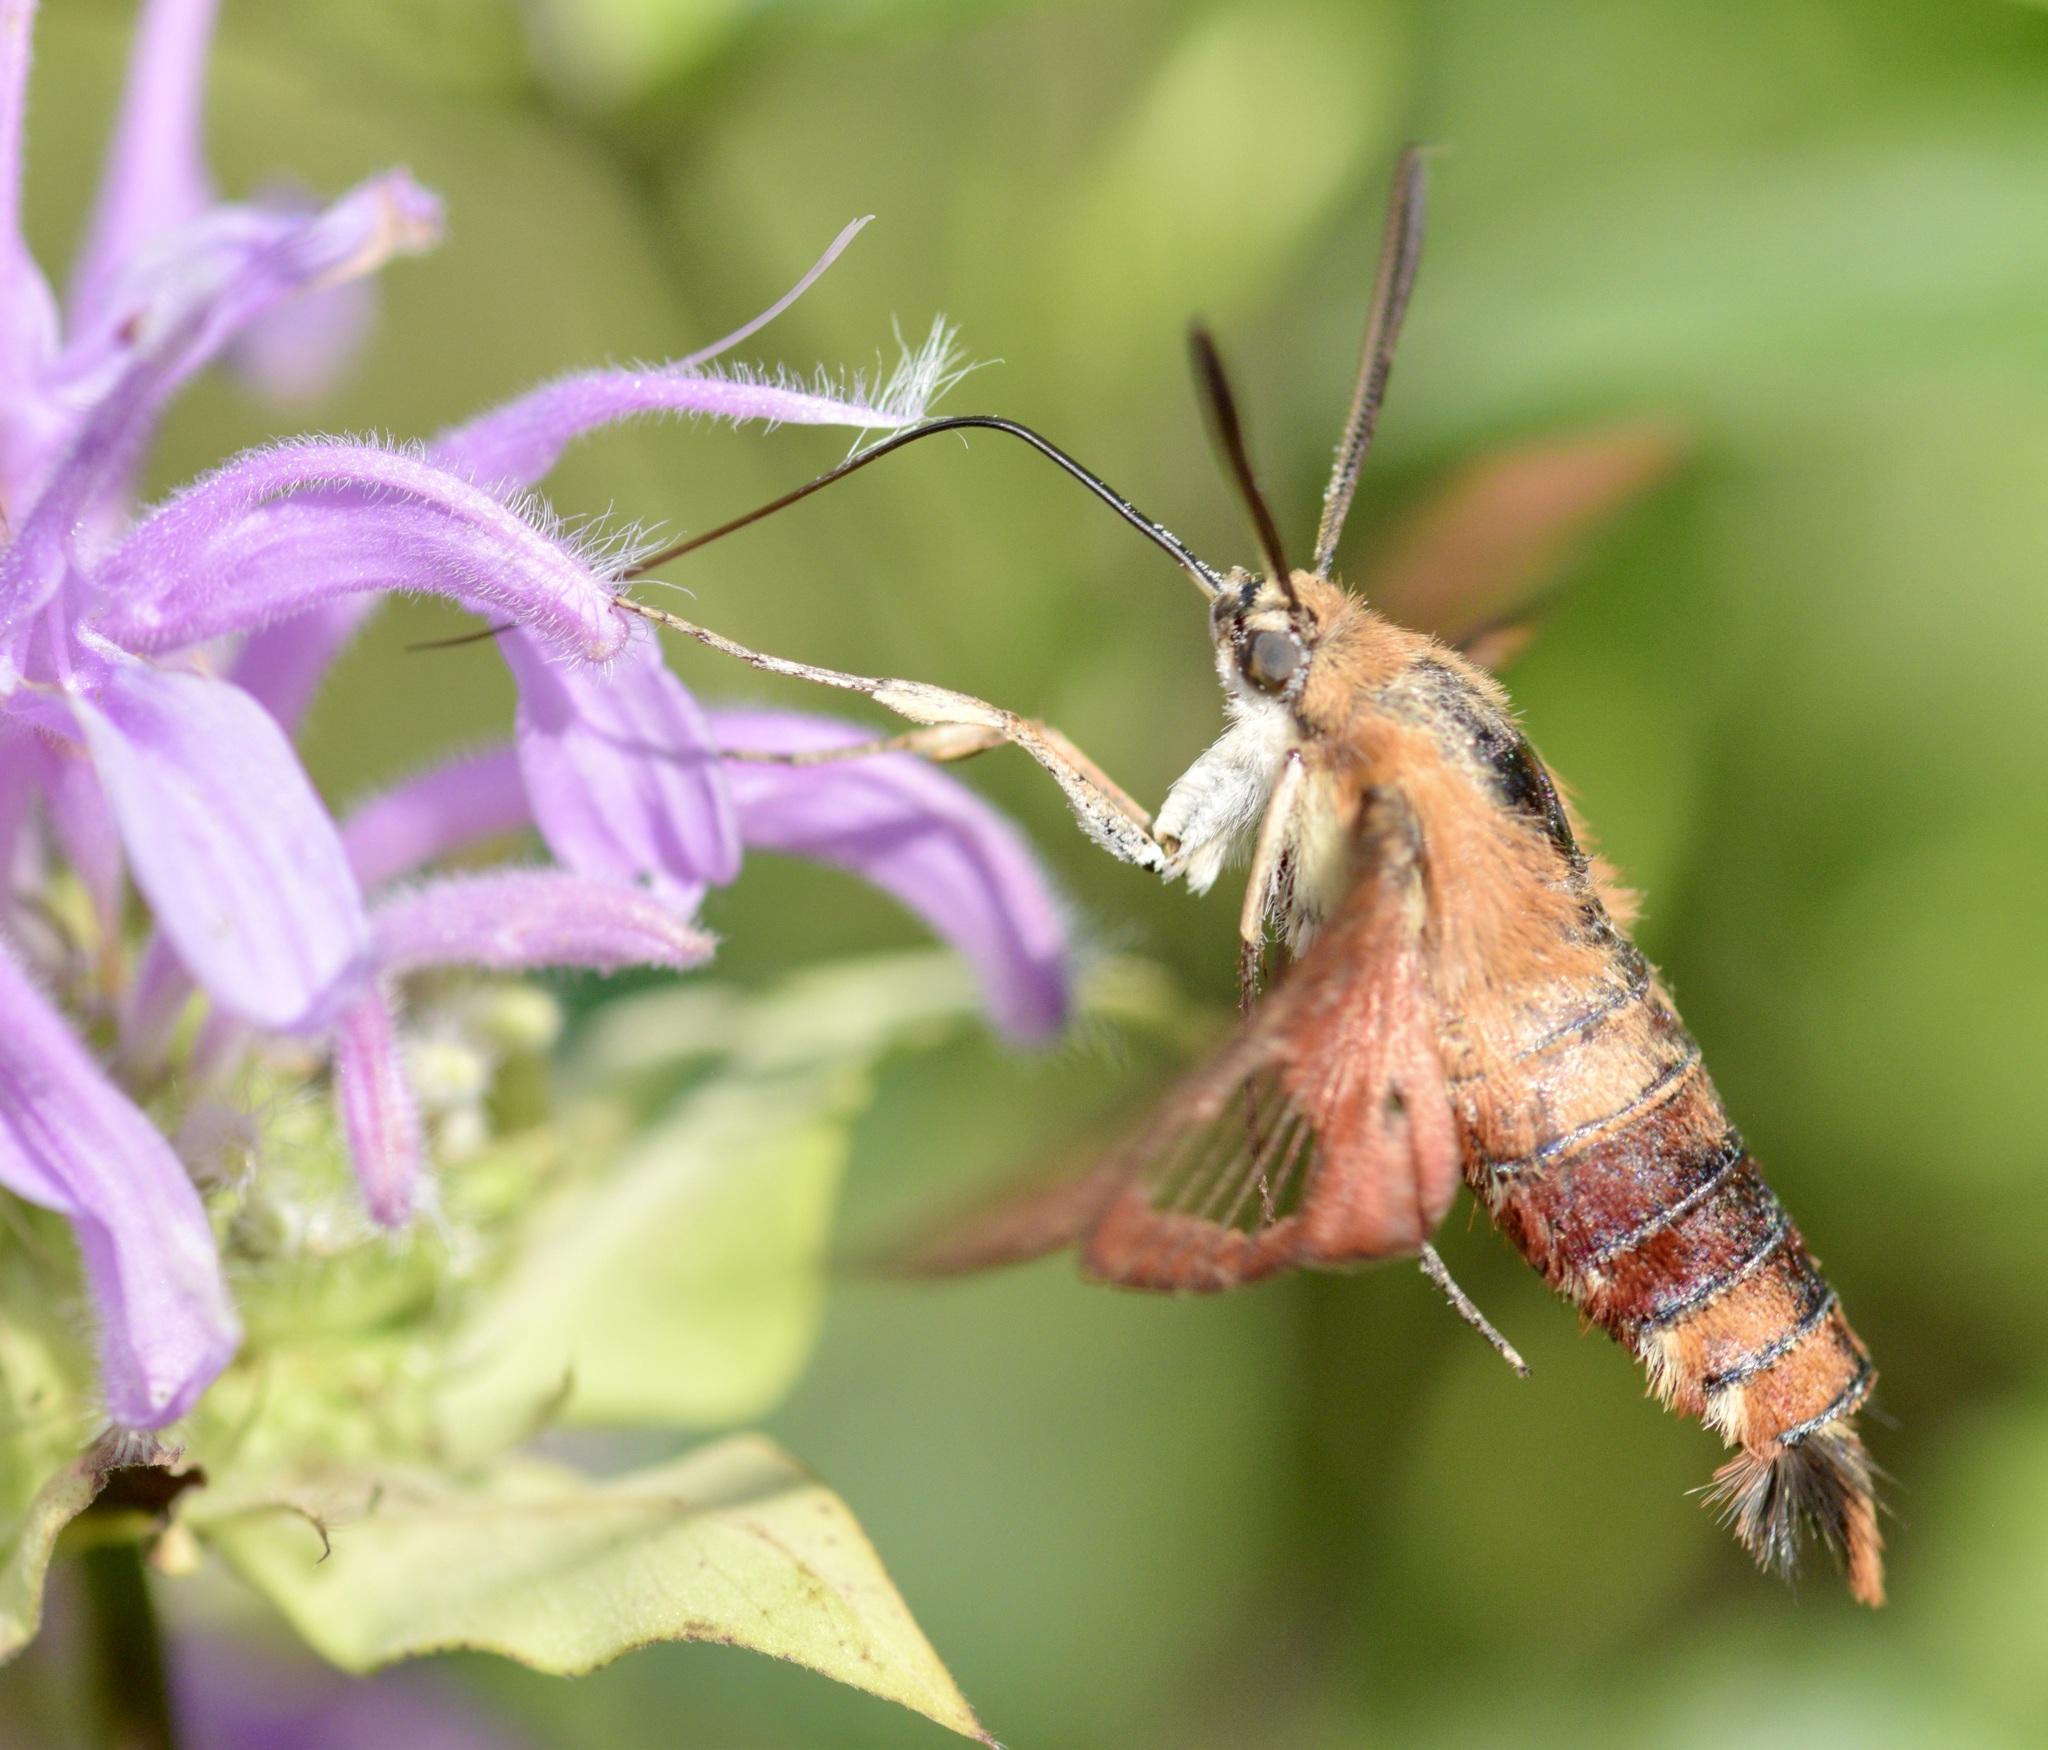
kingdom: Animalia
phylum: Arthropoda
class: Insecta
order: Lepidoptera
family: Sphingidae
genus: Hemaris
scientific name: Hemaris thysbe
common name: Common clear-wing
